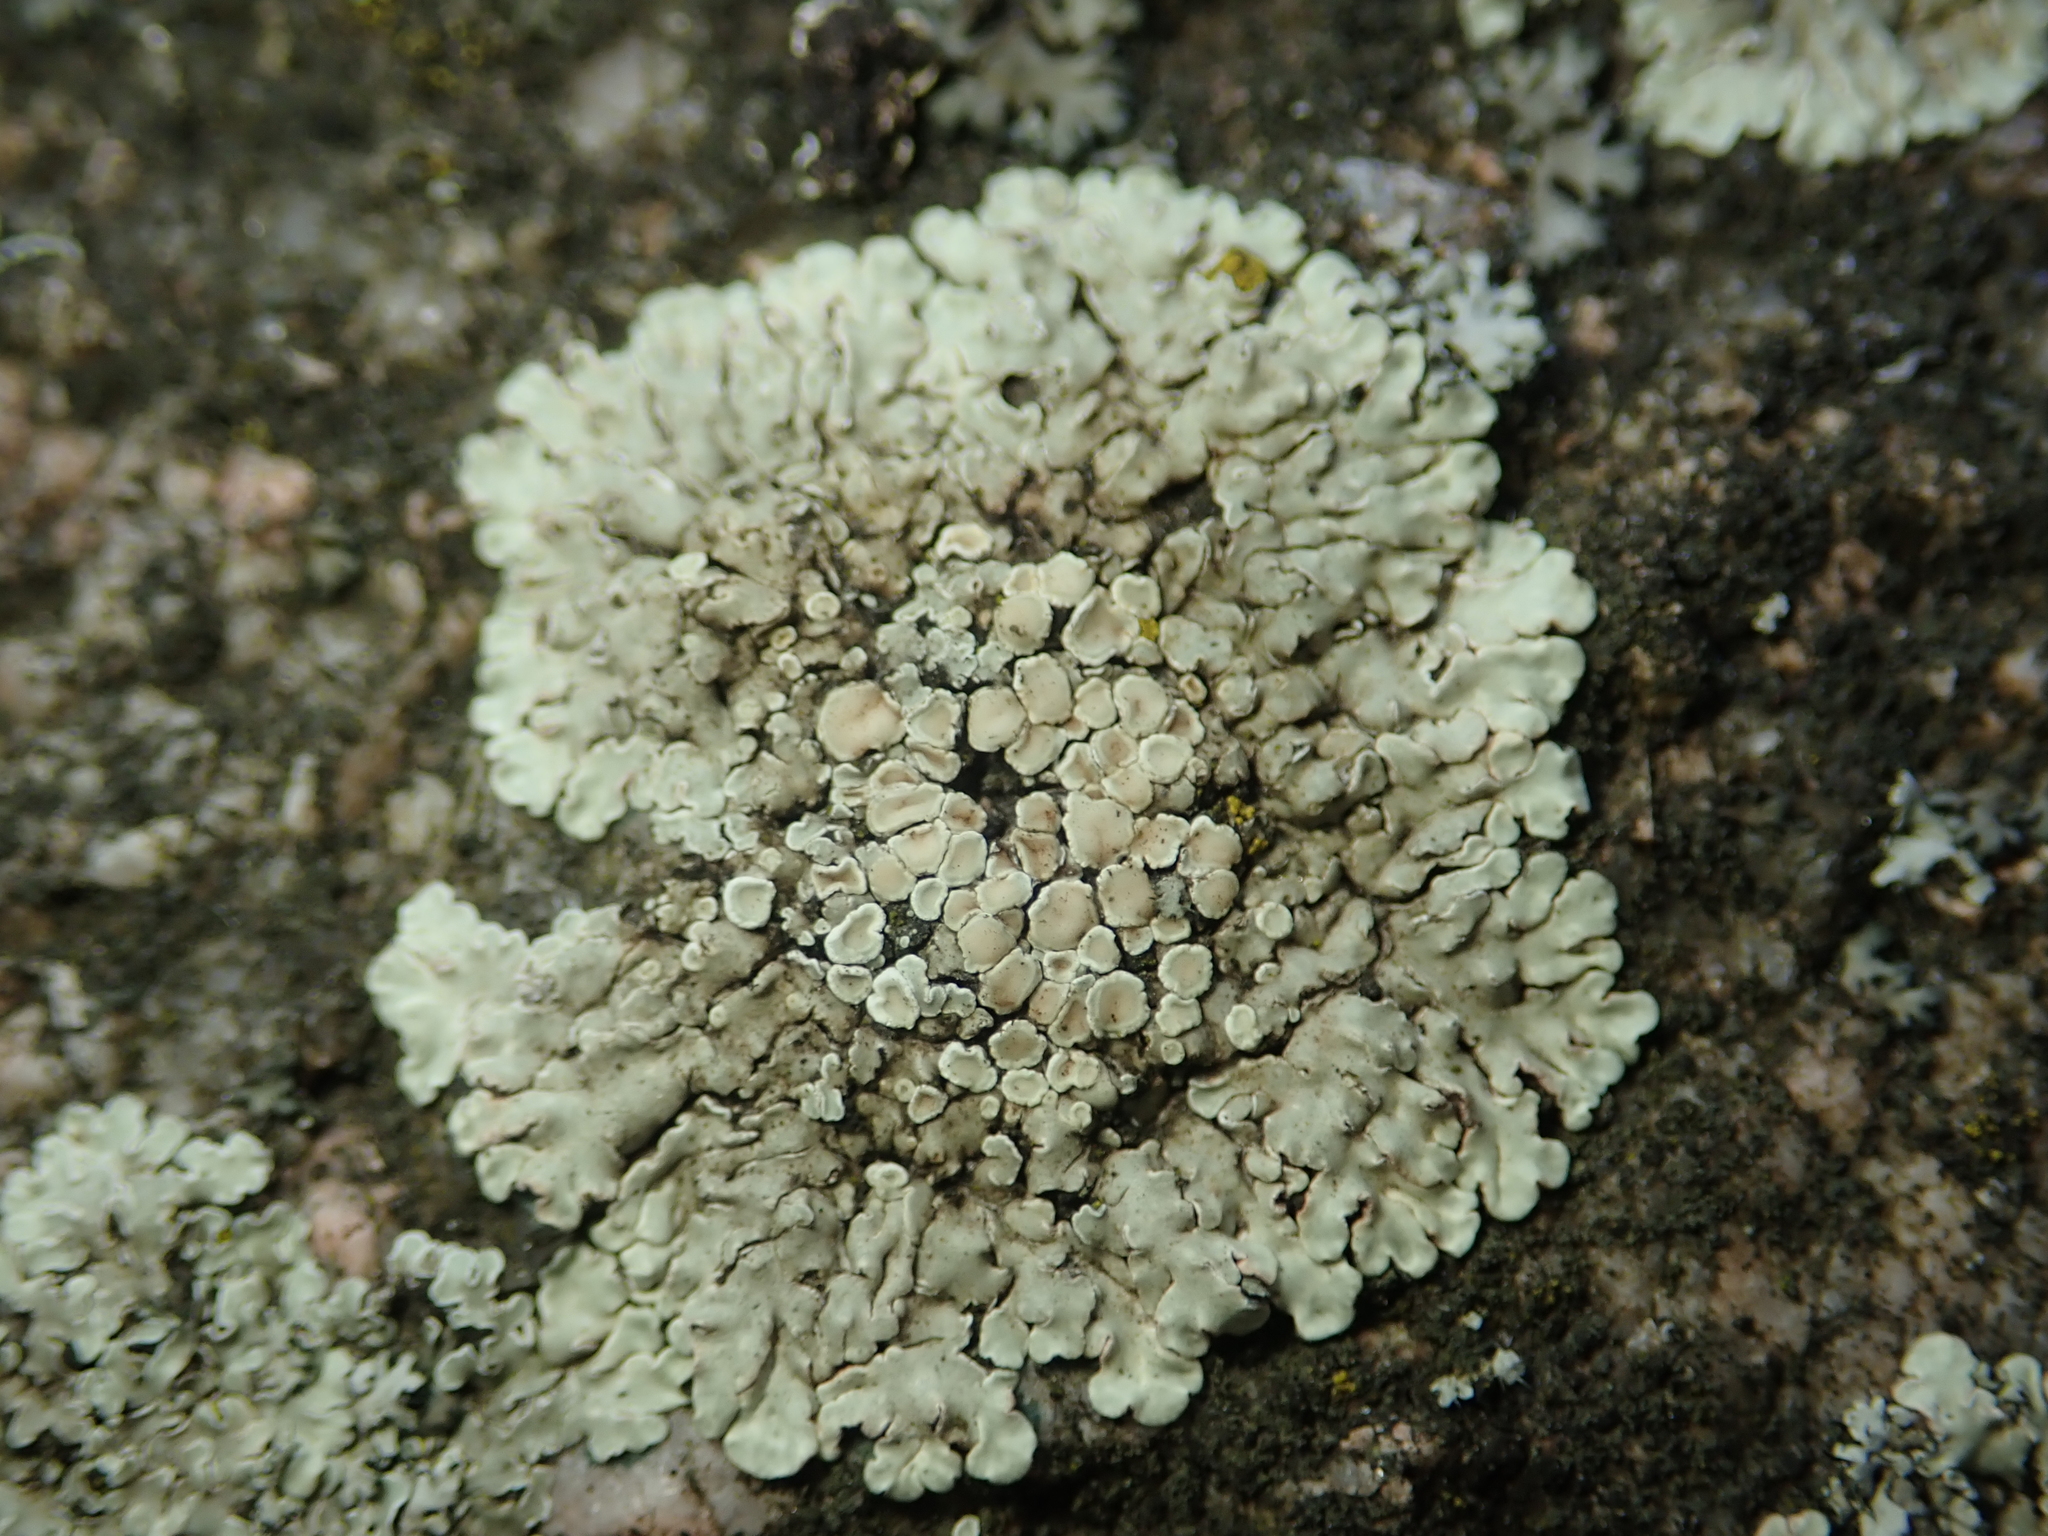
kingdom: Fungi
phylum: Ascomycota
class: Lecanoromycetes
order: Lecanorales
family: Lecanoraceae
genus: Protoparmeliopsis
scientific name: Protoparmeliopsis muralis
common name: Stonewall rim lichen
